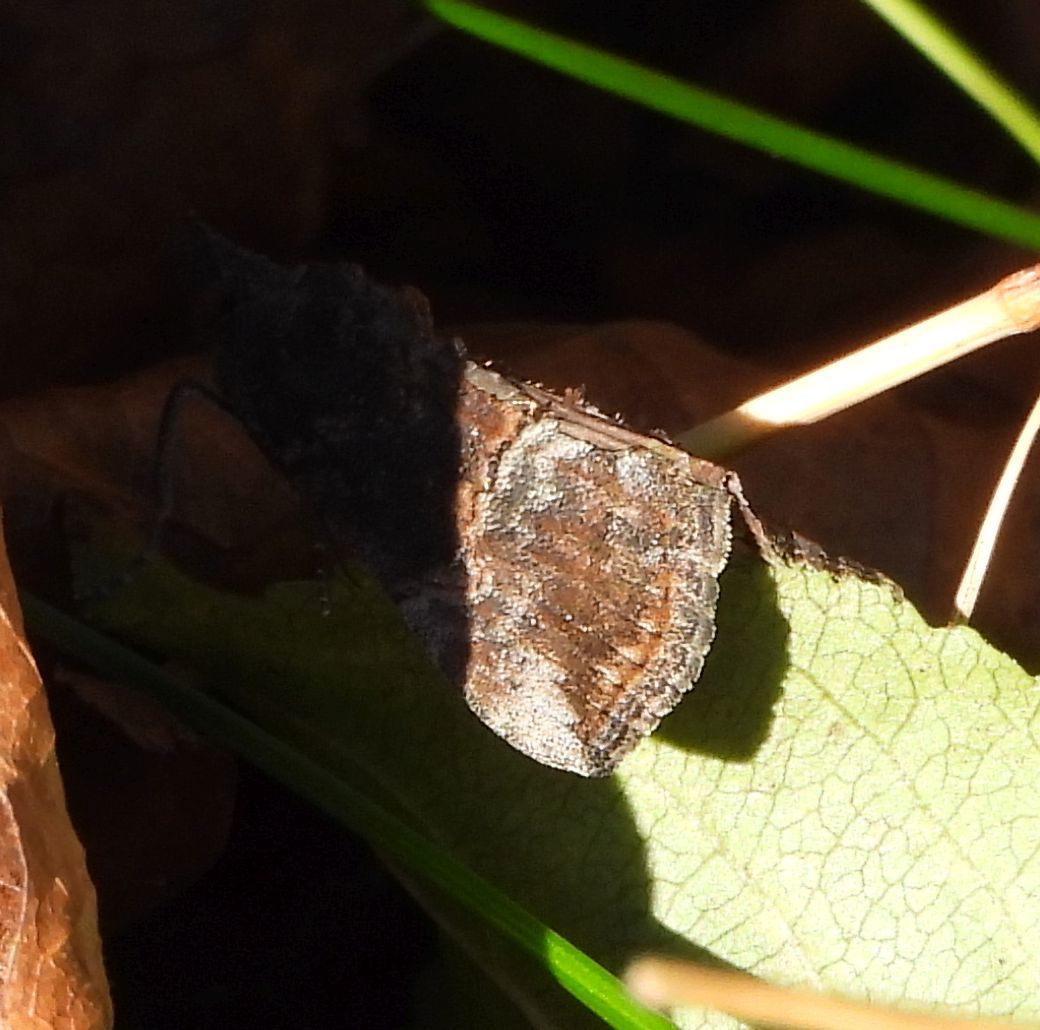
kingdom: Animalia
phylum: Arthropoda
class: Insecta
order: Lepidoptera
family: Erebidae
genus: Hypena
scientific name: Hypena scabra
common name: Green cloverworm
